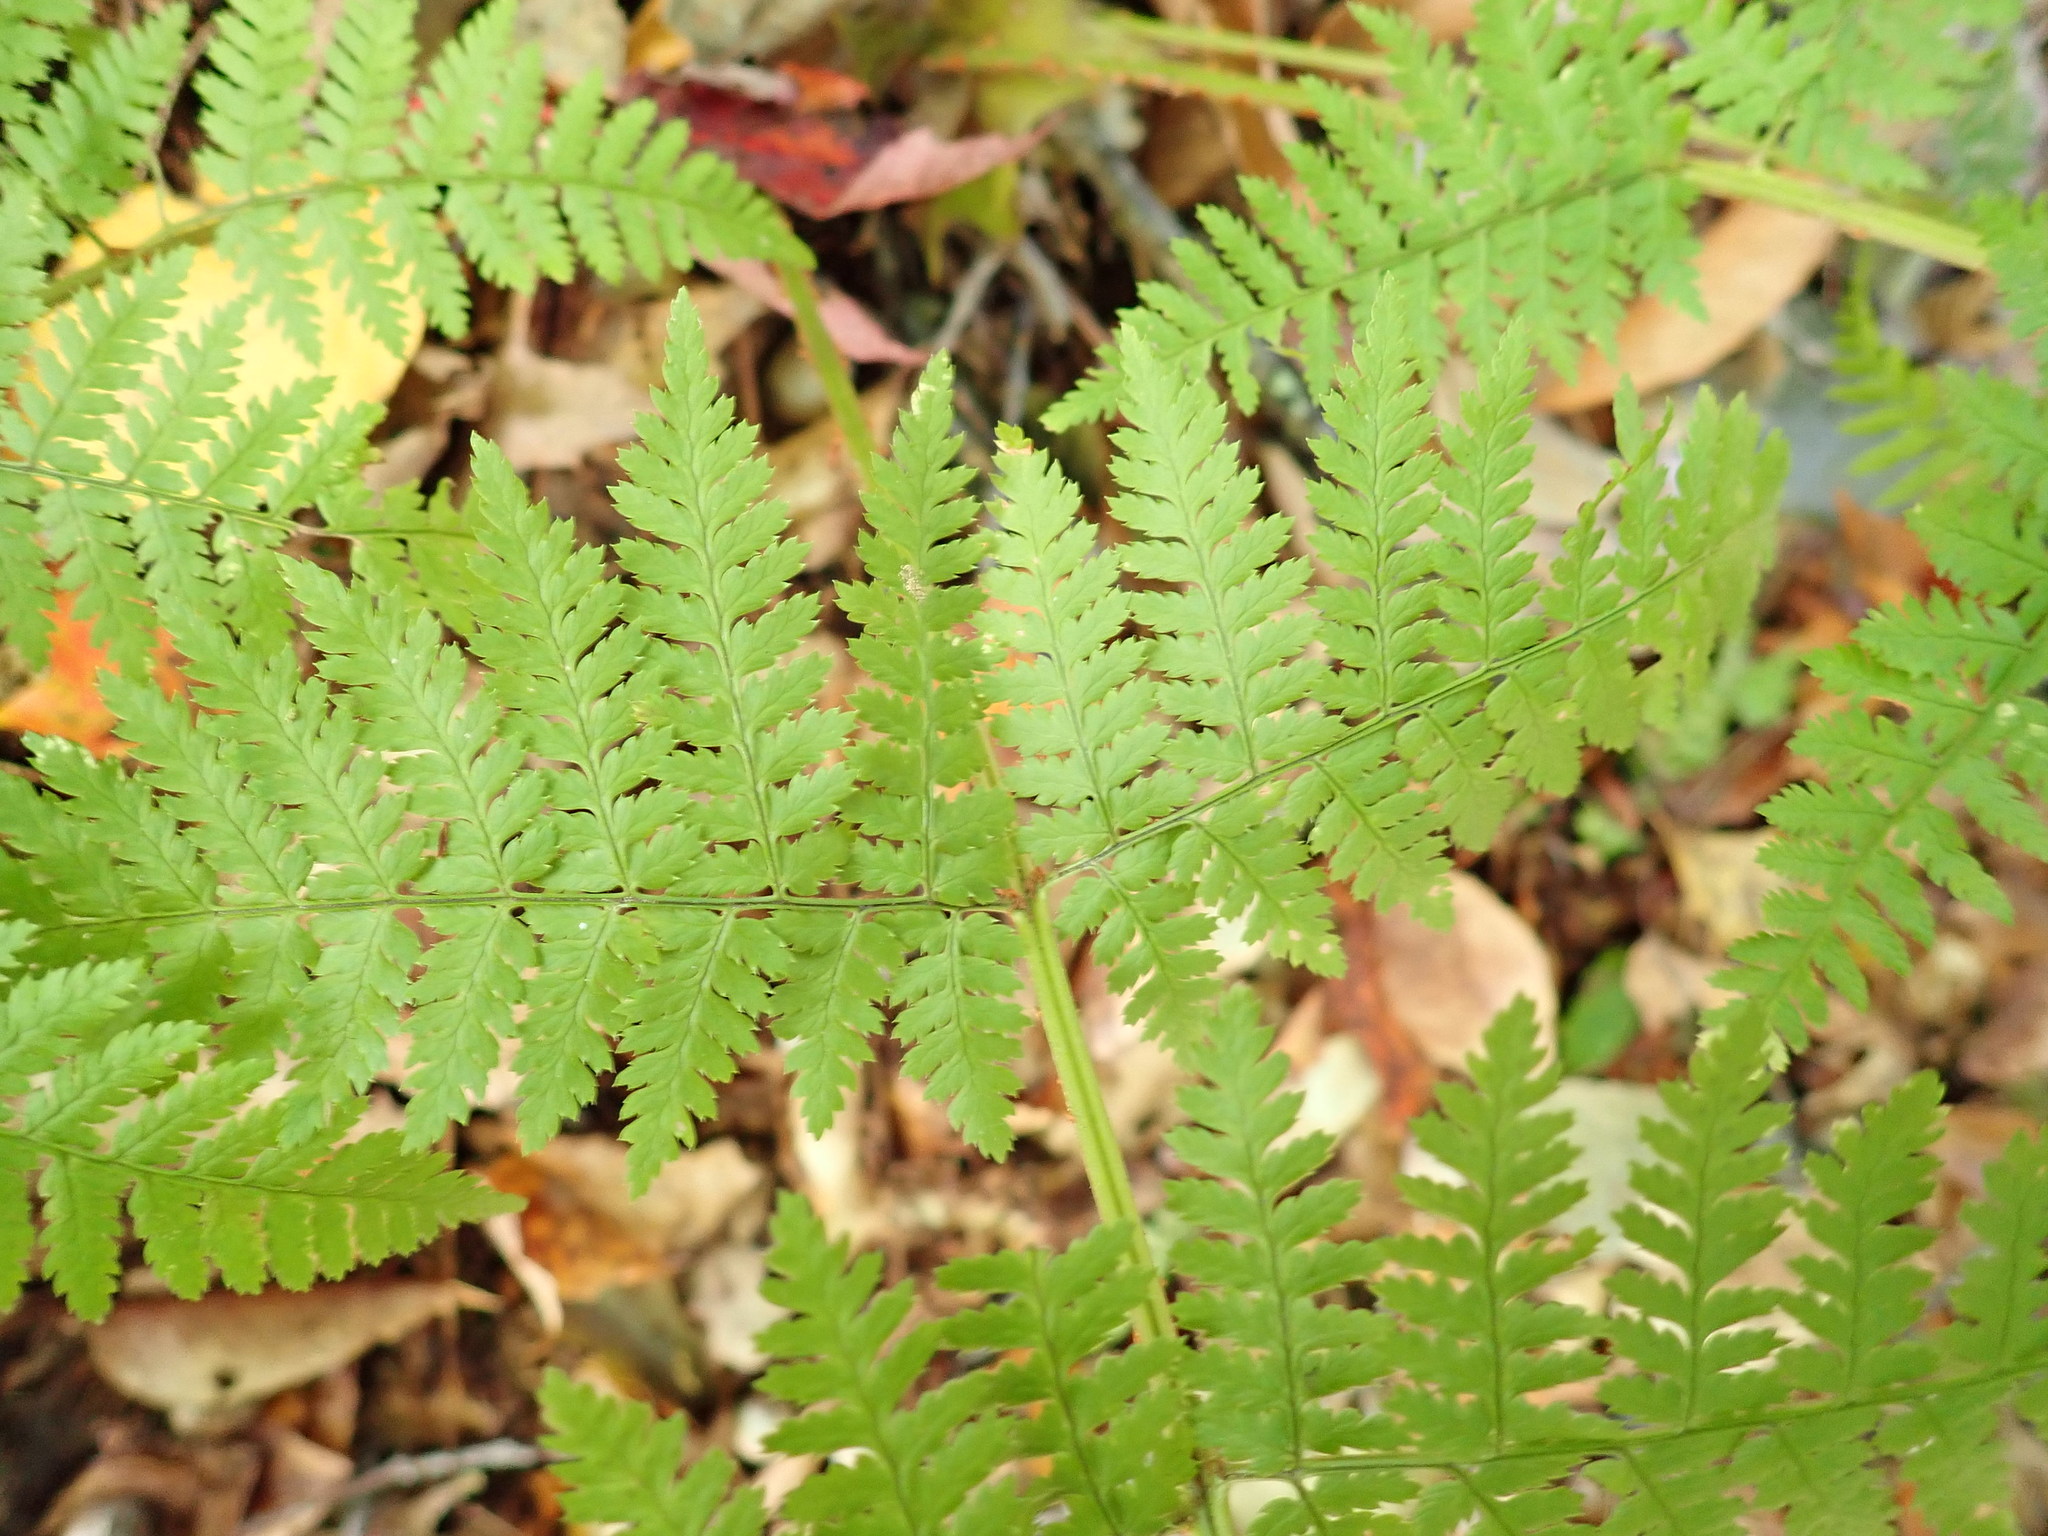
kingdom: Plantae
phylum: Tracheophyta
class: Polypodiopsida
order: Polypodiales
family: Dryopteridaceae
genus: Dryopteris
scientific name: Dryopteris intermedia
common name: Evergreen wood fern
